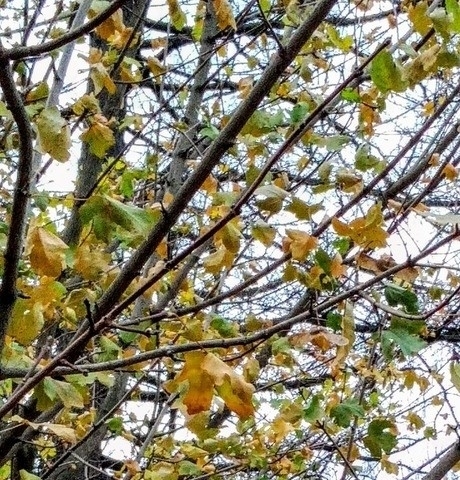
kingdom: Plantae
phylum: Tracheophyta
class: Magnoliopsida
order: Sapindales
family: Sapindaceae
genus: Acer
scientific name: Acer platanoides
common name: Norway maple
